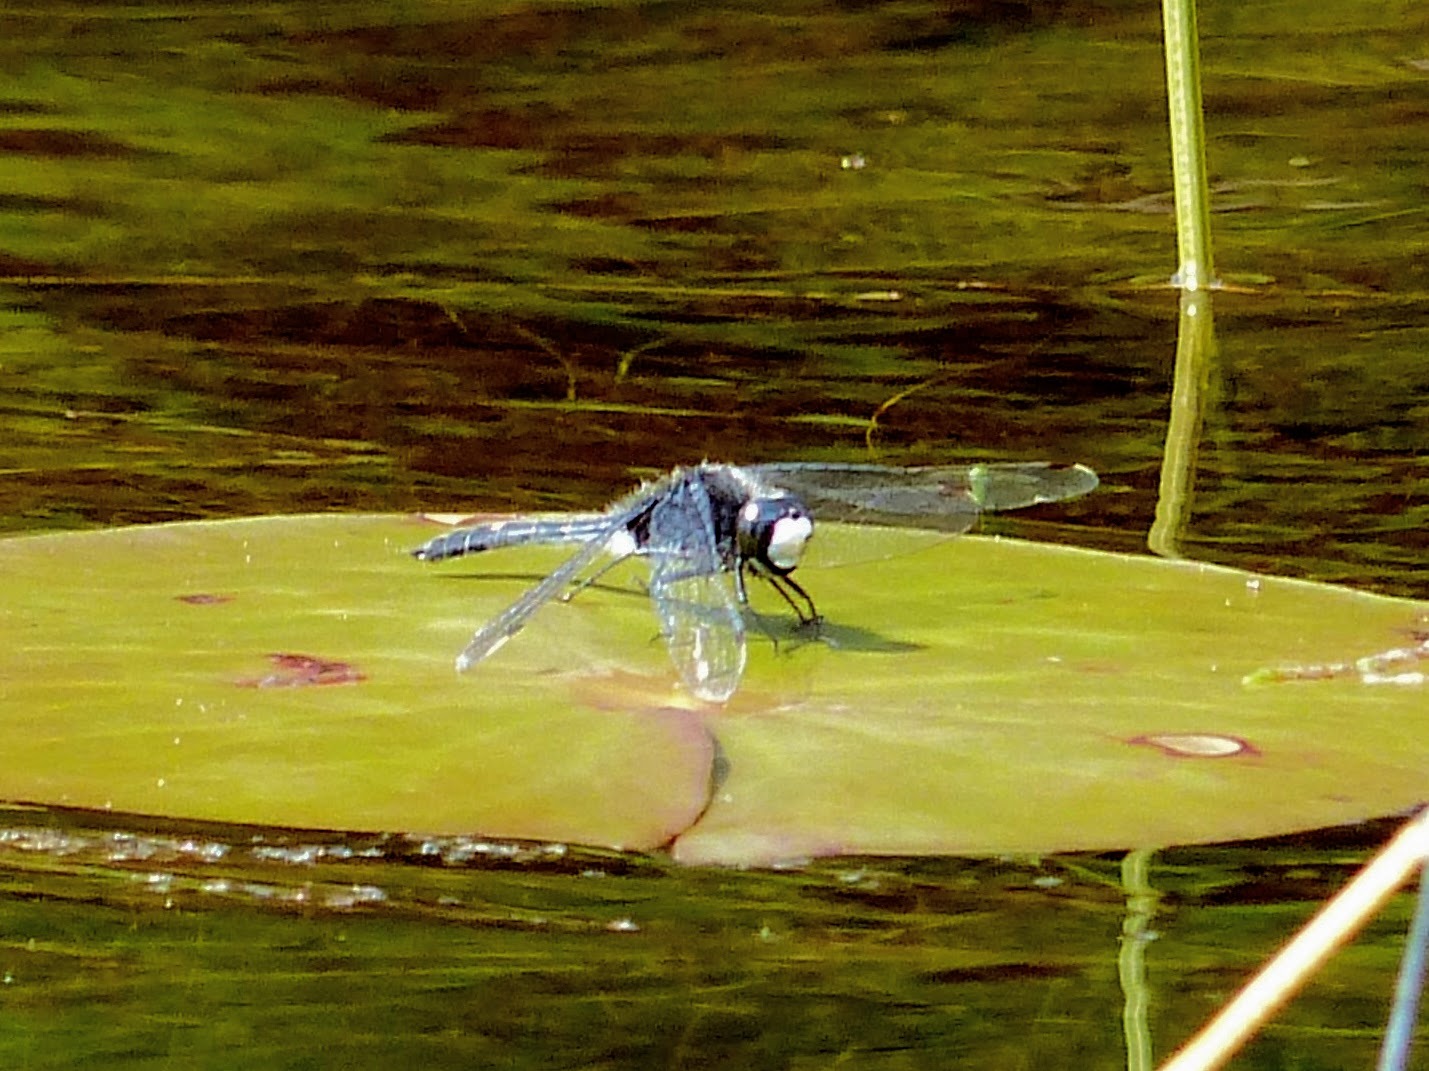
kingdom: Animalia
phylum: Arthropoda
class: Insecta
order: Odonata
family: Libellulidae
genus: Leucorrhinia
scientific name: Leucorrhinia intacta
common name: Dot-tailed whiteface
